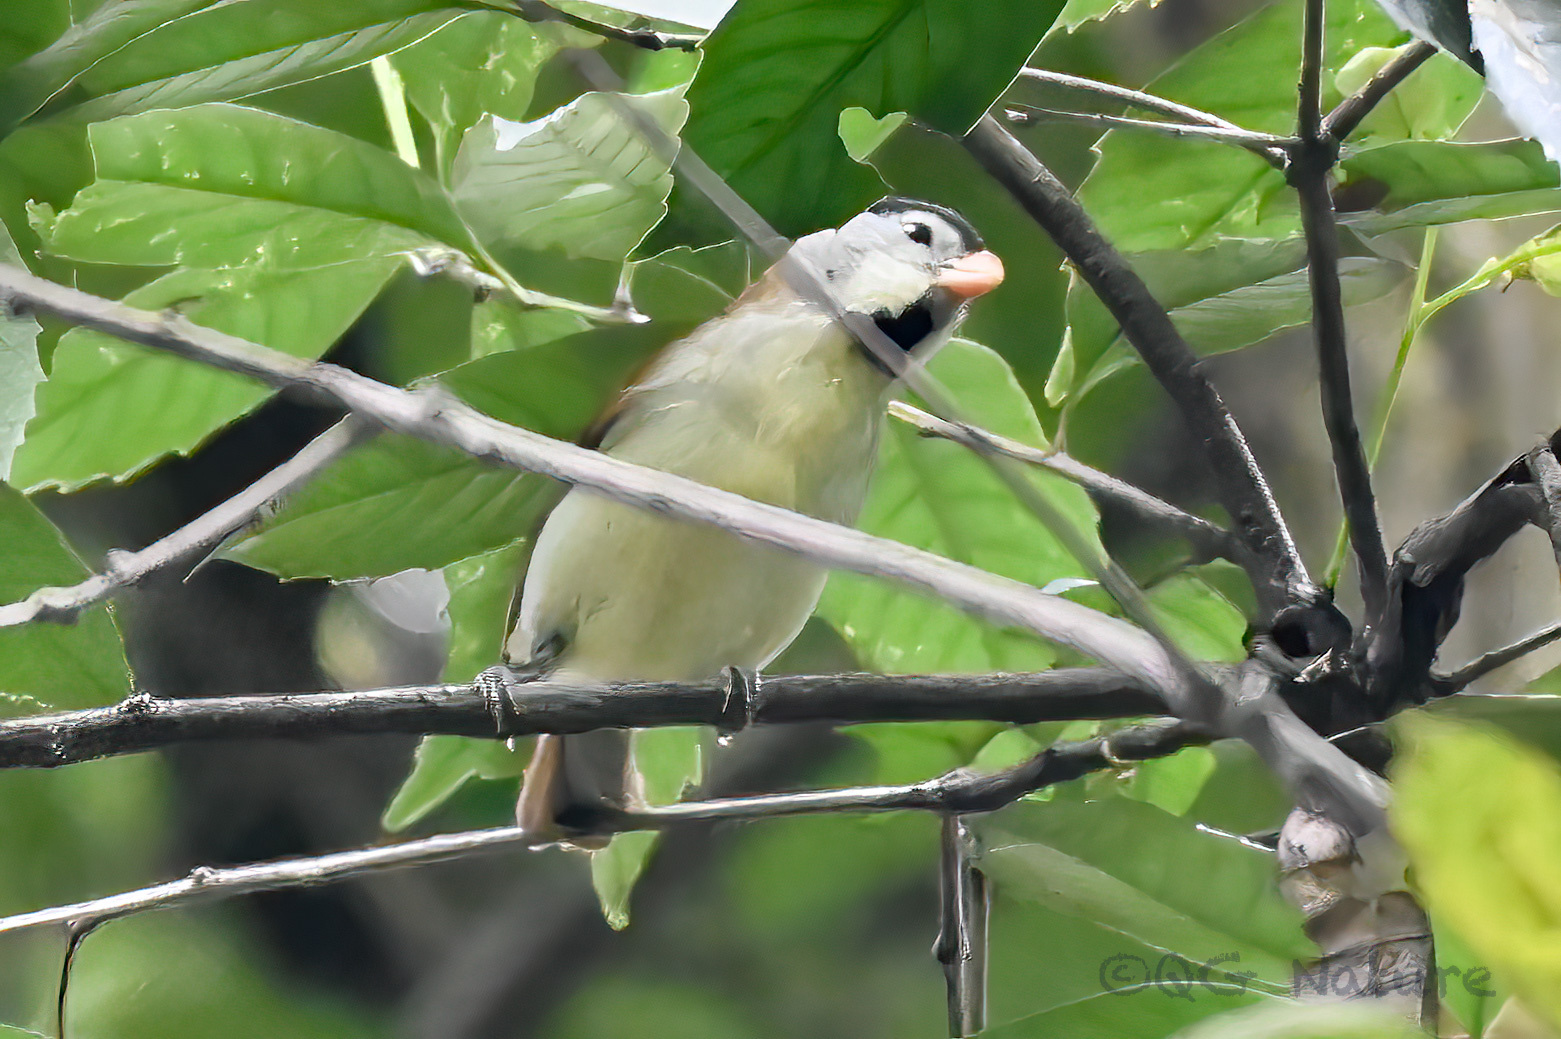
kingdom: Animalia
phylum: Chordata
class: Aves
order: Passeriformes
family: Sylviidae
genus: Psittiparus
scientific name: Psittiparus gularis
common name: Gray-headed parrotbill
